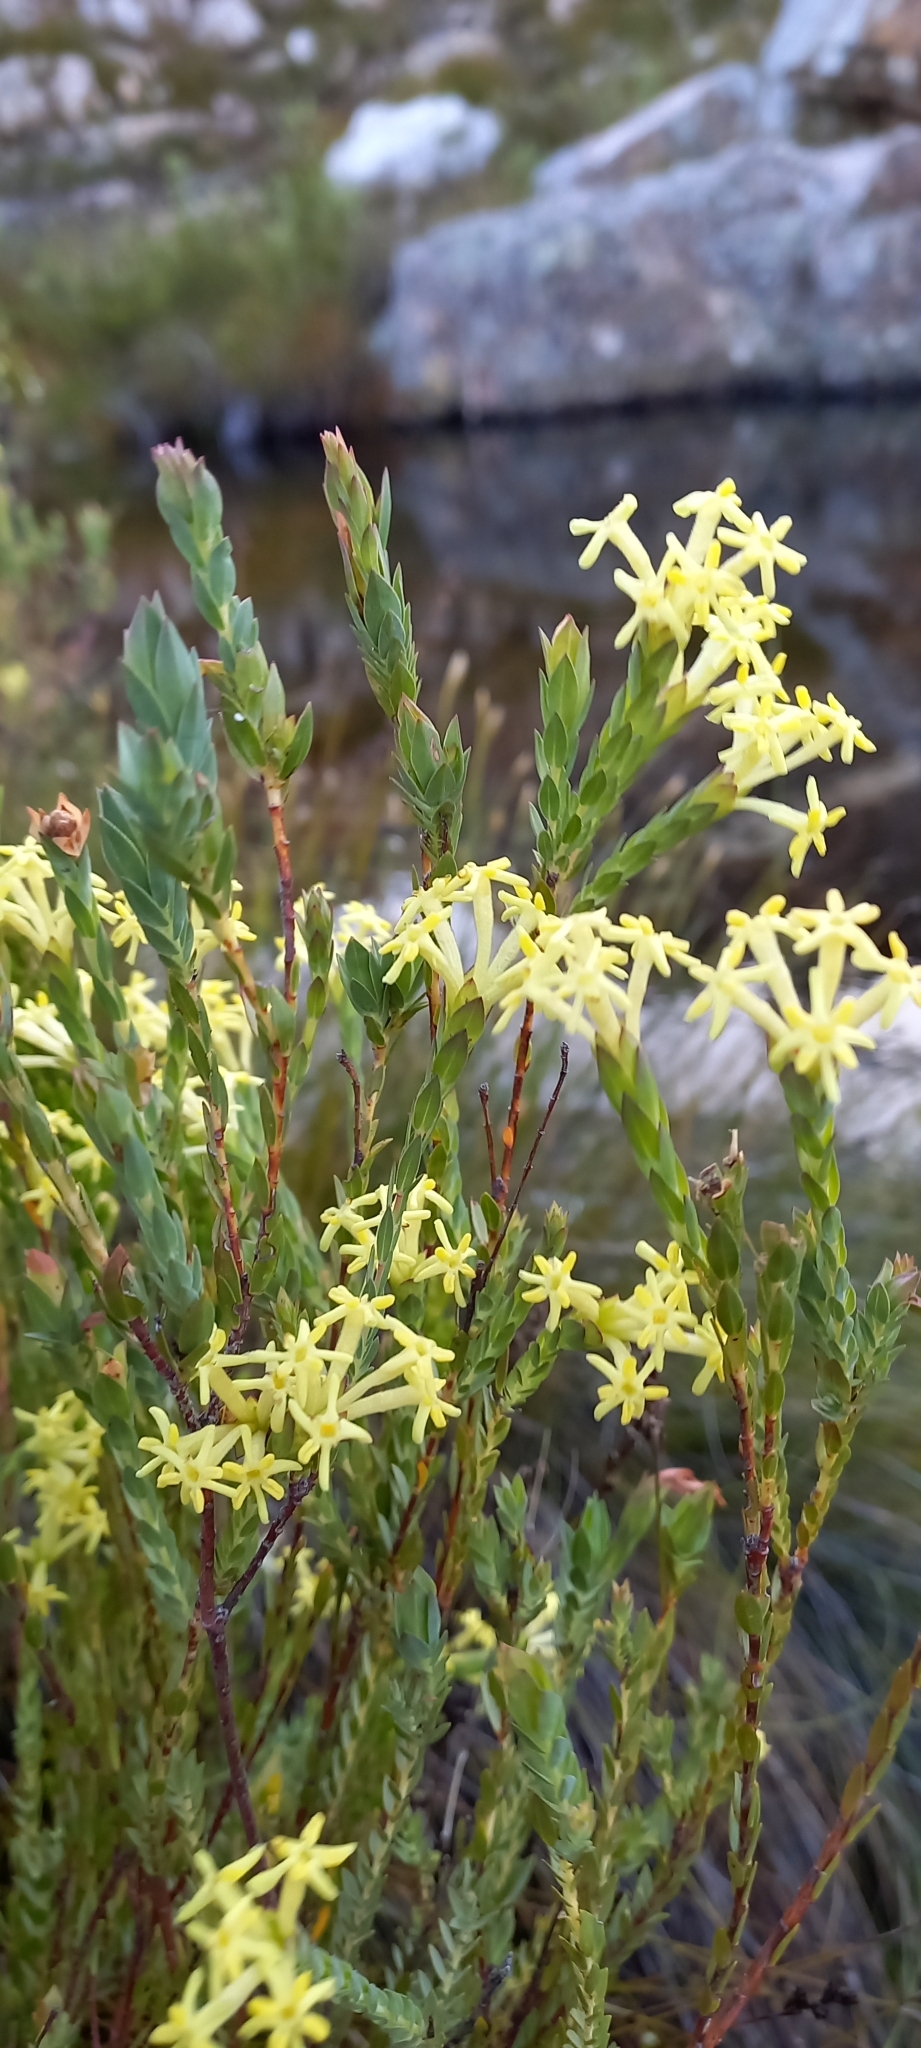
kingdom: Plantae
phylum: Tracheophyta
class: Magnoliopsida
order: Malvales
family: Thymelaeaceae
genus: Gnidia
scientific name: Gnidia oppositifolia
